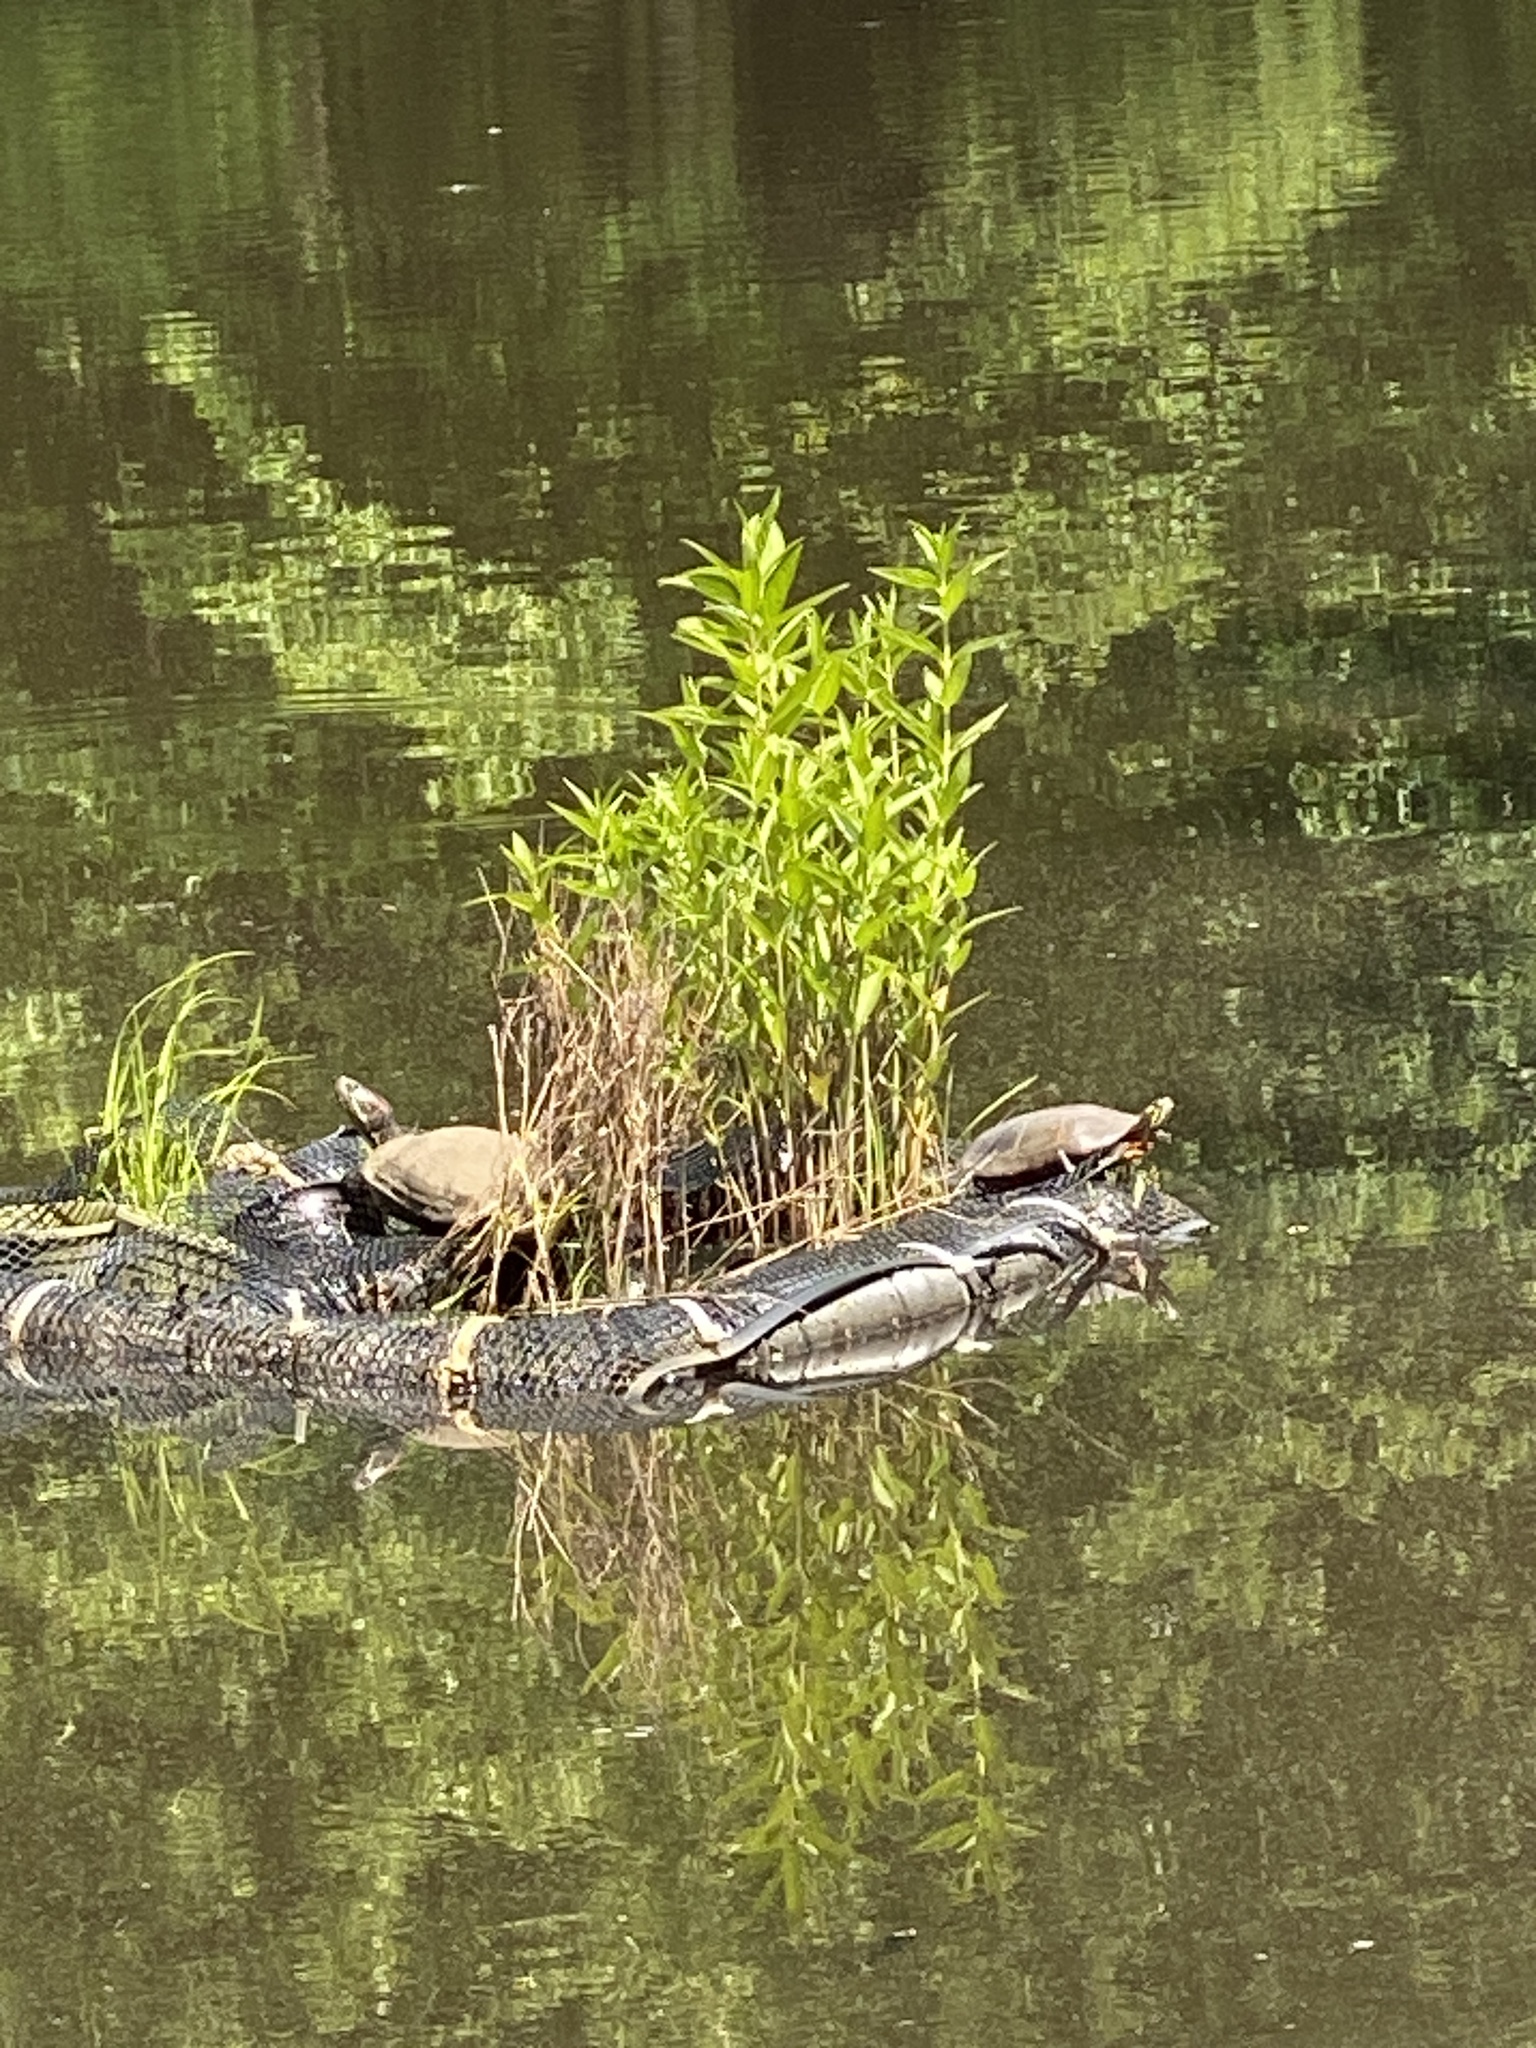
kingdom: Animalia
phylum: Chordata
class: Testudines
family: Emydidae
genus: Trachemys
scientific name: Trachemys scripta
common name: Slider
